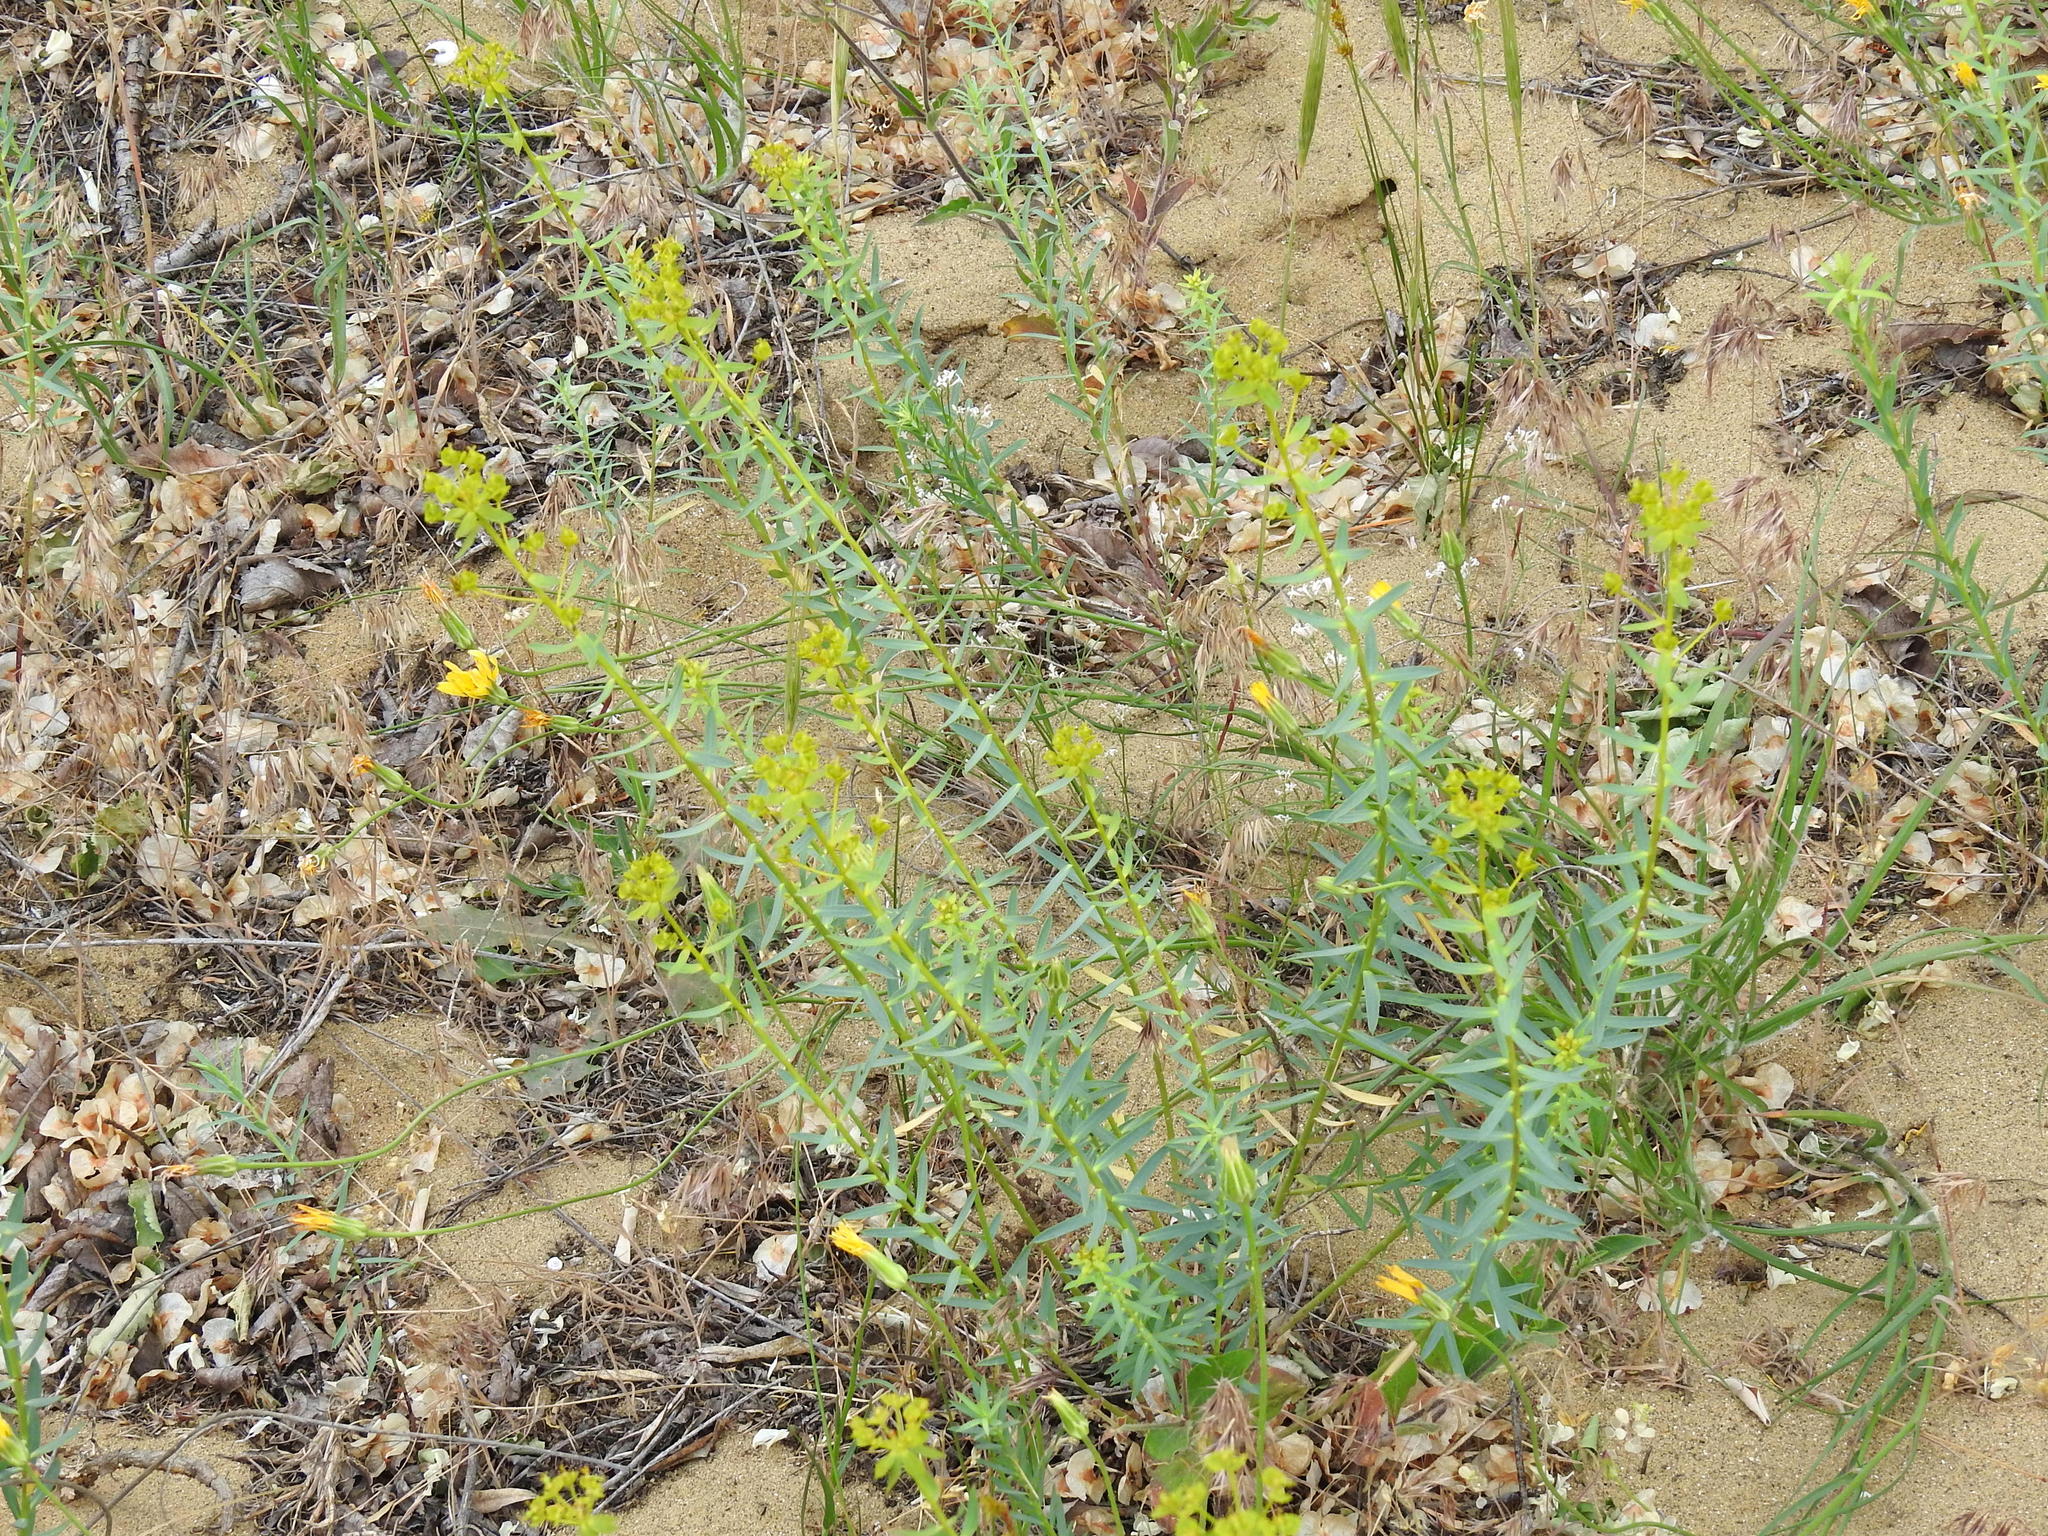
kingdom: Plantae
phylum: Tracheophyta
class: Magnoliopsida
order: Malpighiales
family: Euphorbiaceae
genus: Euphorbia
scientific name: Euphorbia seguieriana
